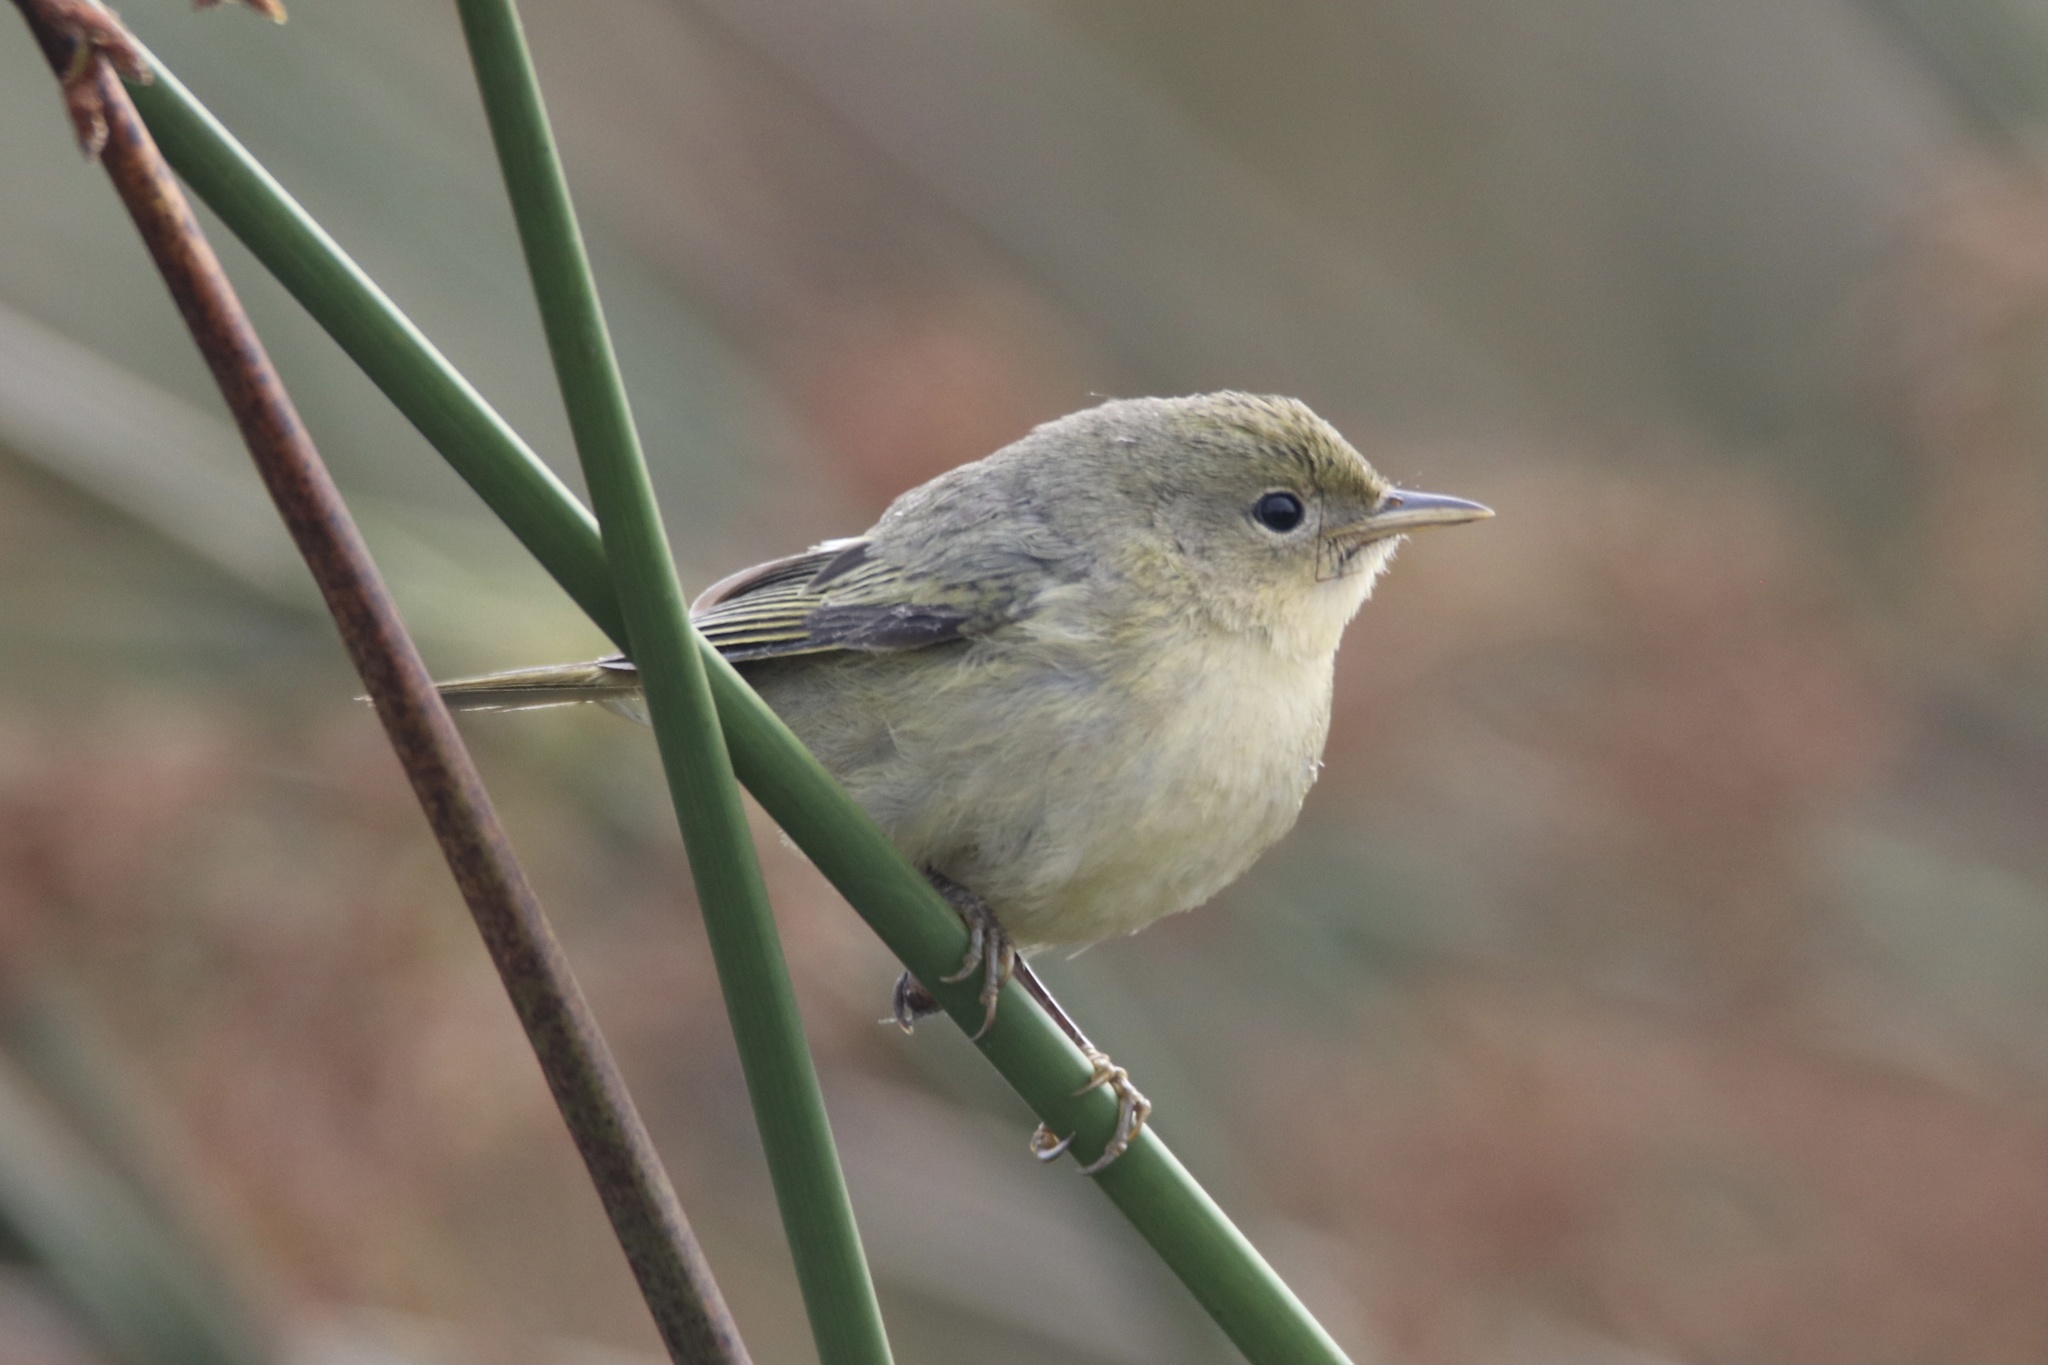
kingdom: Animalia
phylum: Chordata
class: Aves
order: Passeriformes
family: Parulidae
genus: Setophaga
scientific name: Setophaga petechia
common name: Yellow warbler
